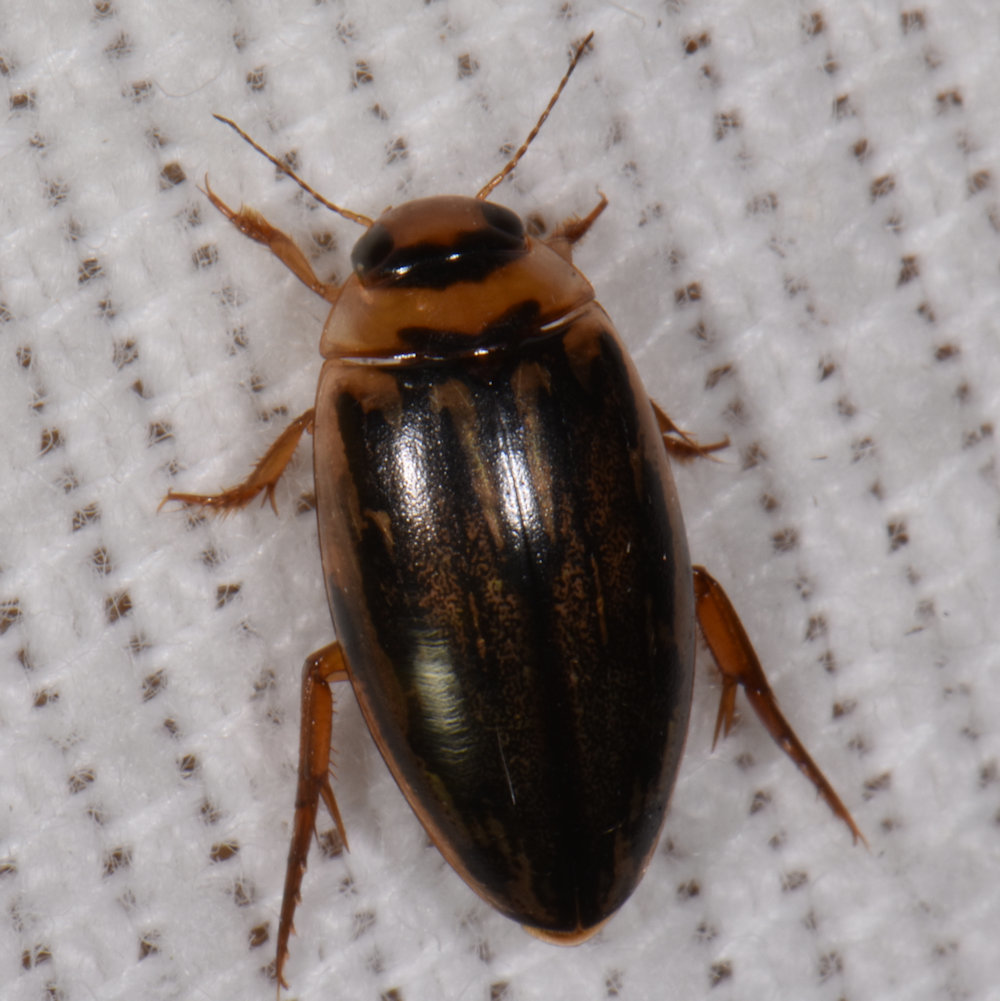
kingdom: Animalia
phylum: Arthropoda
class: Insecta
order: Coleoptera
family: Dytiscidae
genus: Coptotomus
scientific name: Coptotomus longulus
